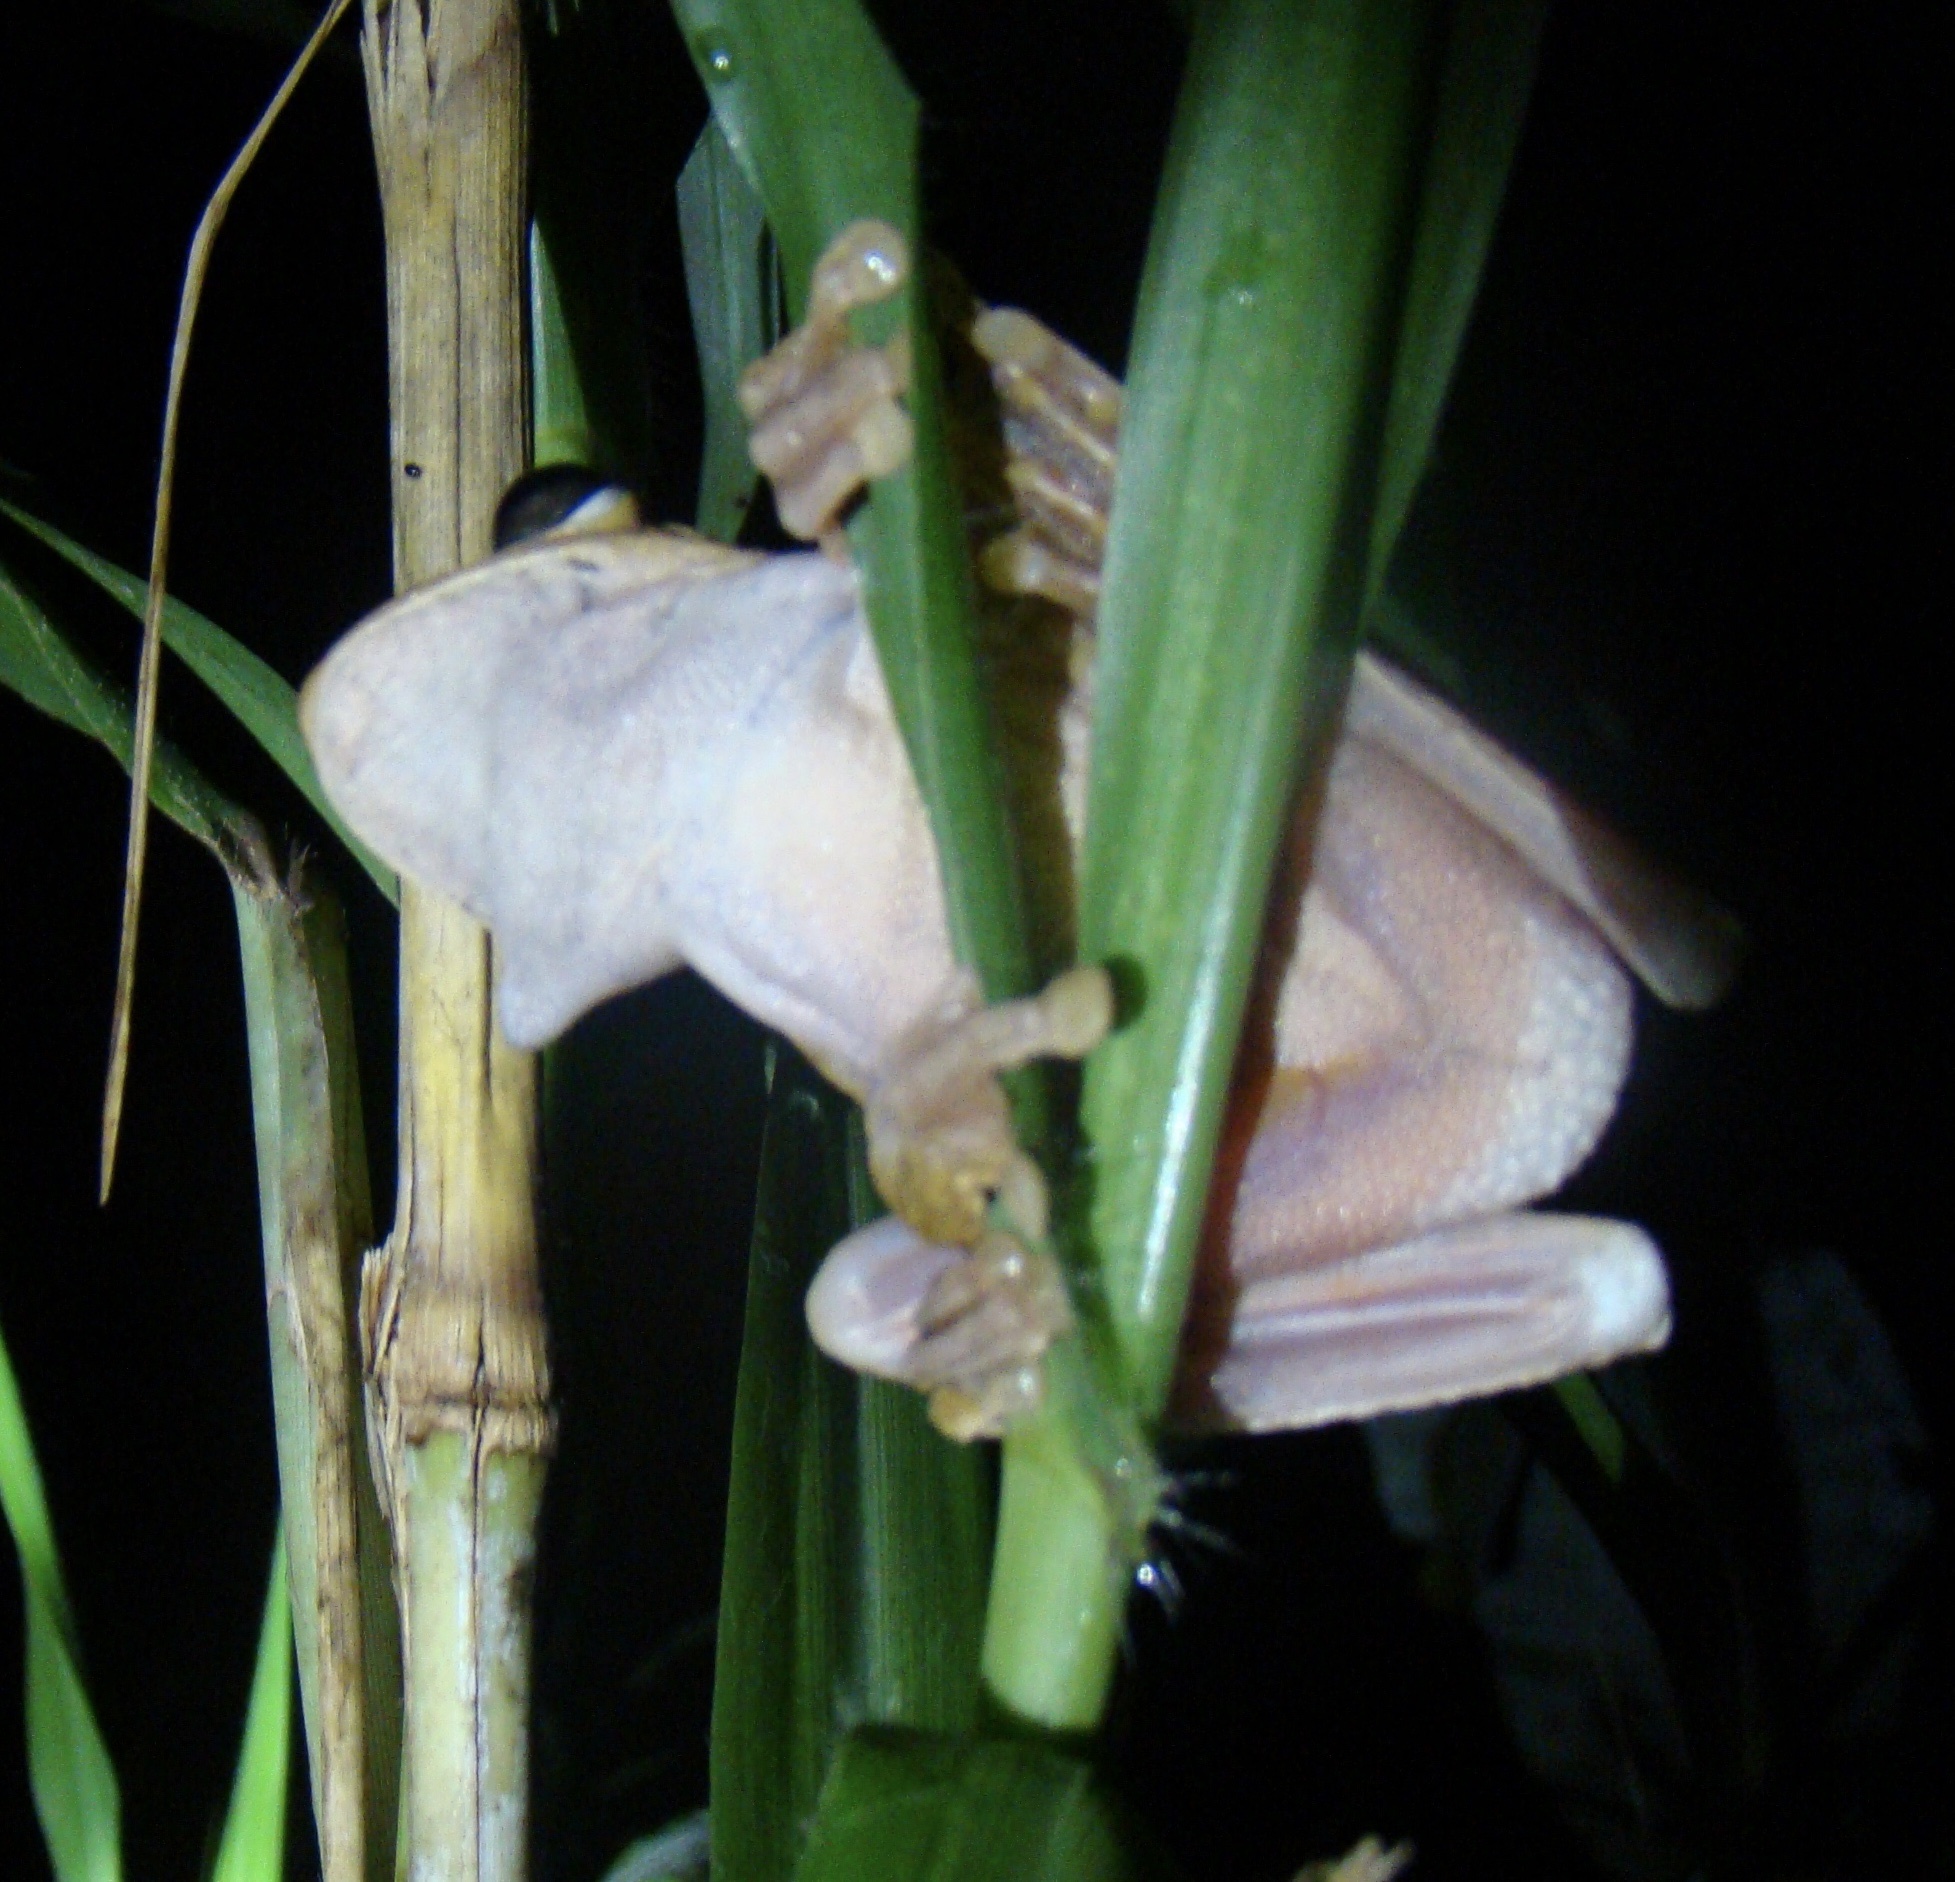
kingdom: Animalia
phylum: Chordata
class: Amphibia
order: Anura
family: Hylidae
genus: Boana
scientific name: Boana rosenbergi
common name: Rosenberg´s gladiator treefrog
